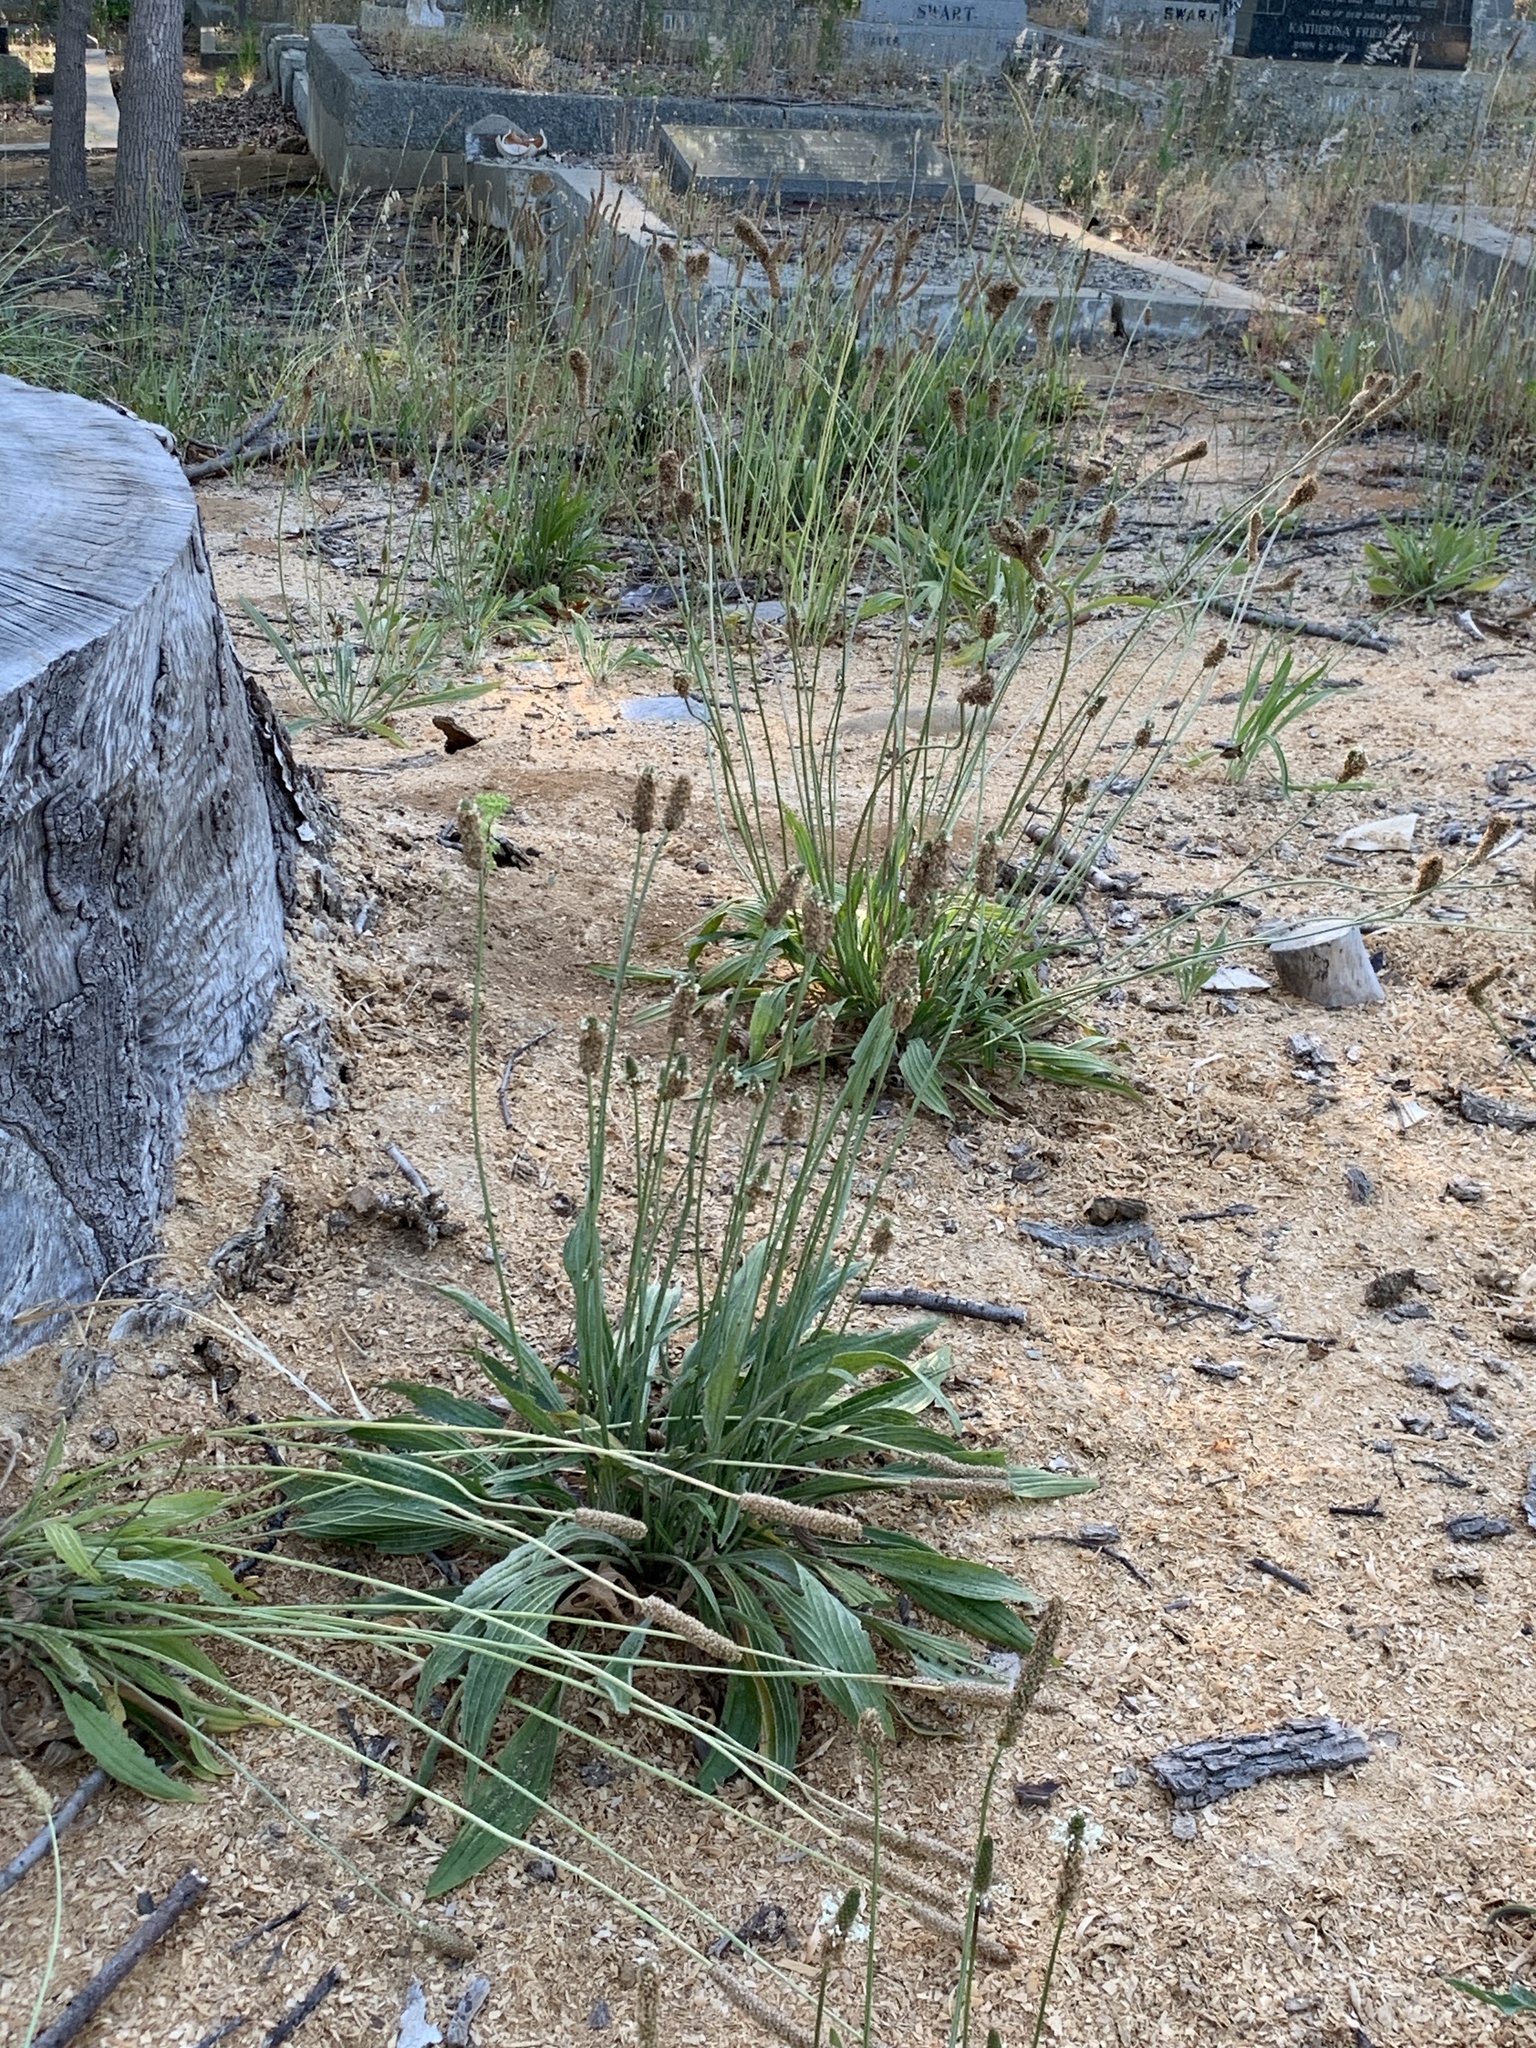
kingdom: Plantae
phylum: Tracheophyta
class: Magnoliopsida
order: Lamiales
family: Plantaginaceae
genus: Plantago
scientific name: Plantago lanceolata
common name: Ribwort plantain
